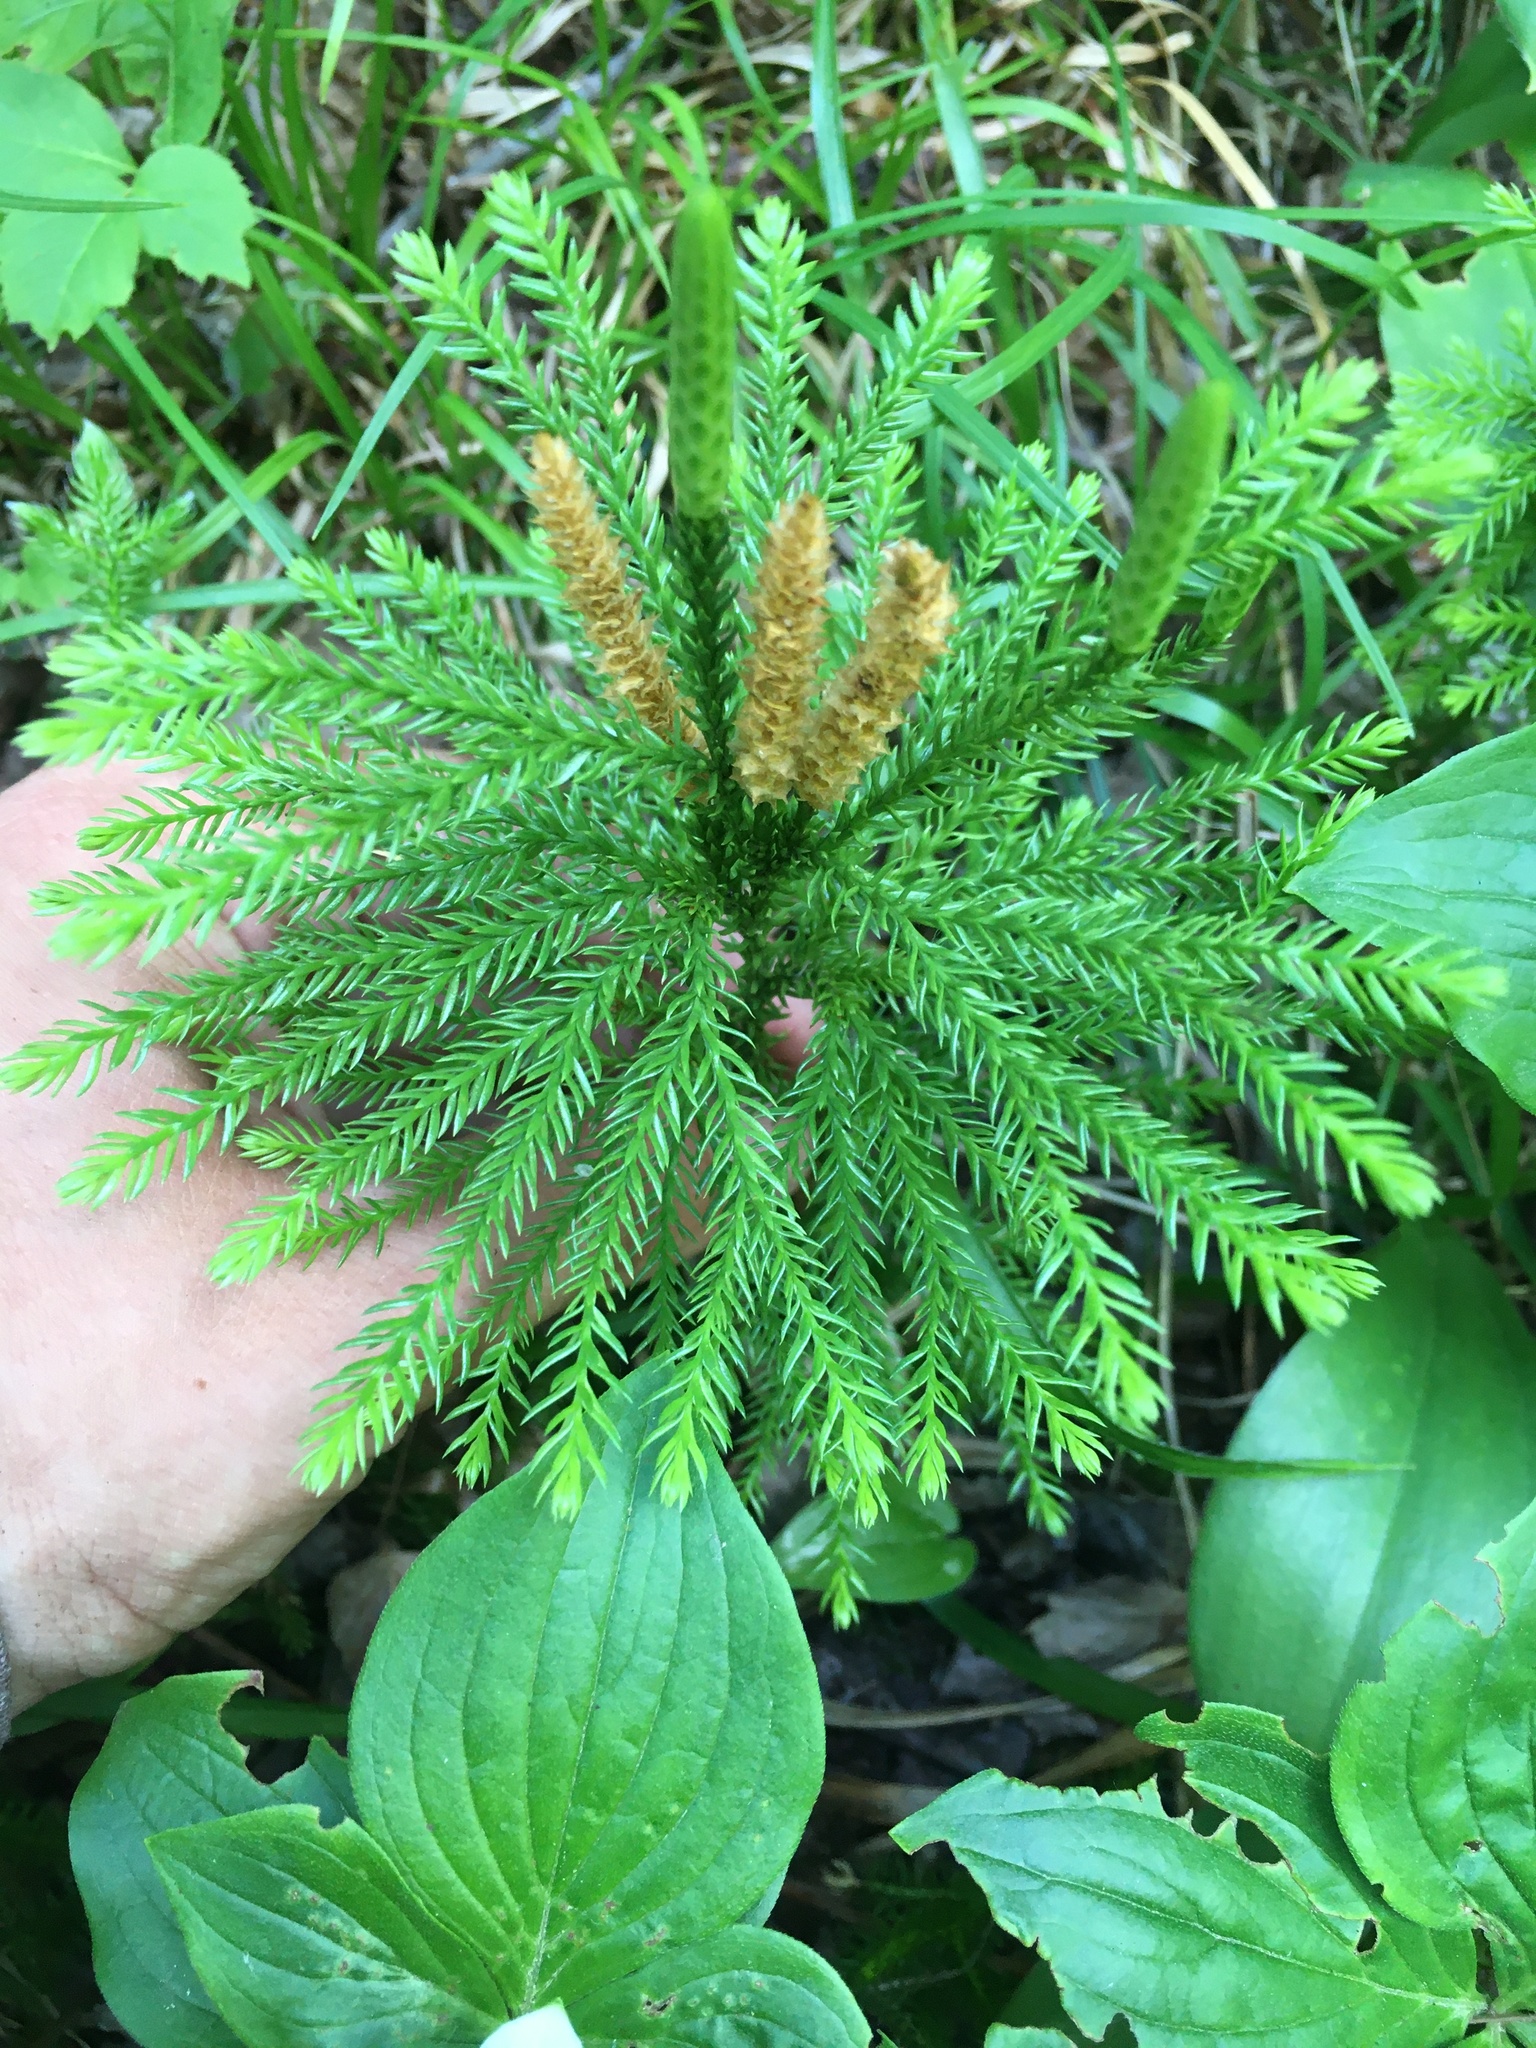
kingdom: Plantae
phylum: Tracheophyta
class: Lycopodiopsida
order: Lycopodiales
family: Lycopodiaceae
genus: Dendrolycopodium
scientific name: Dendrolycopodium dendroideum
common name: Northern tree-clubmoss
